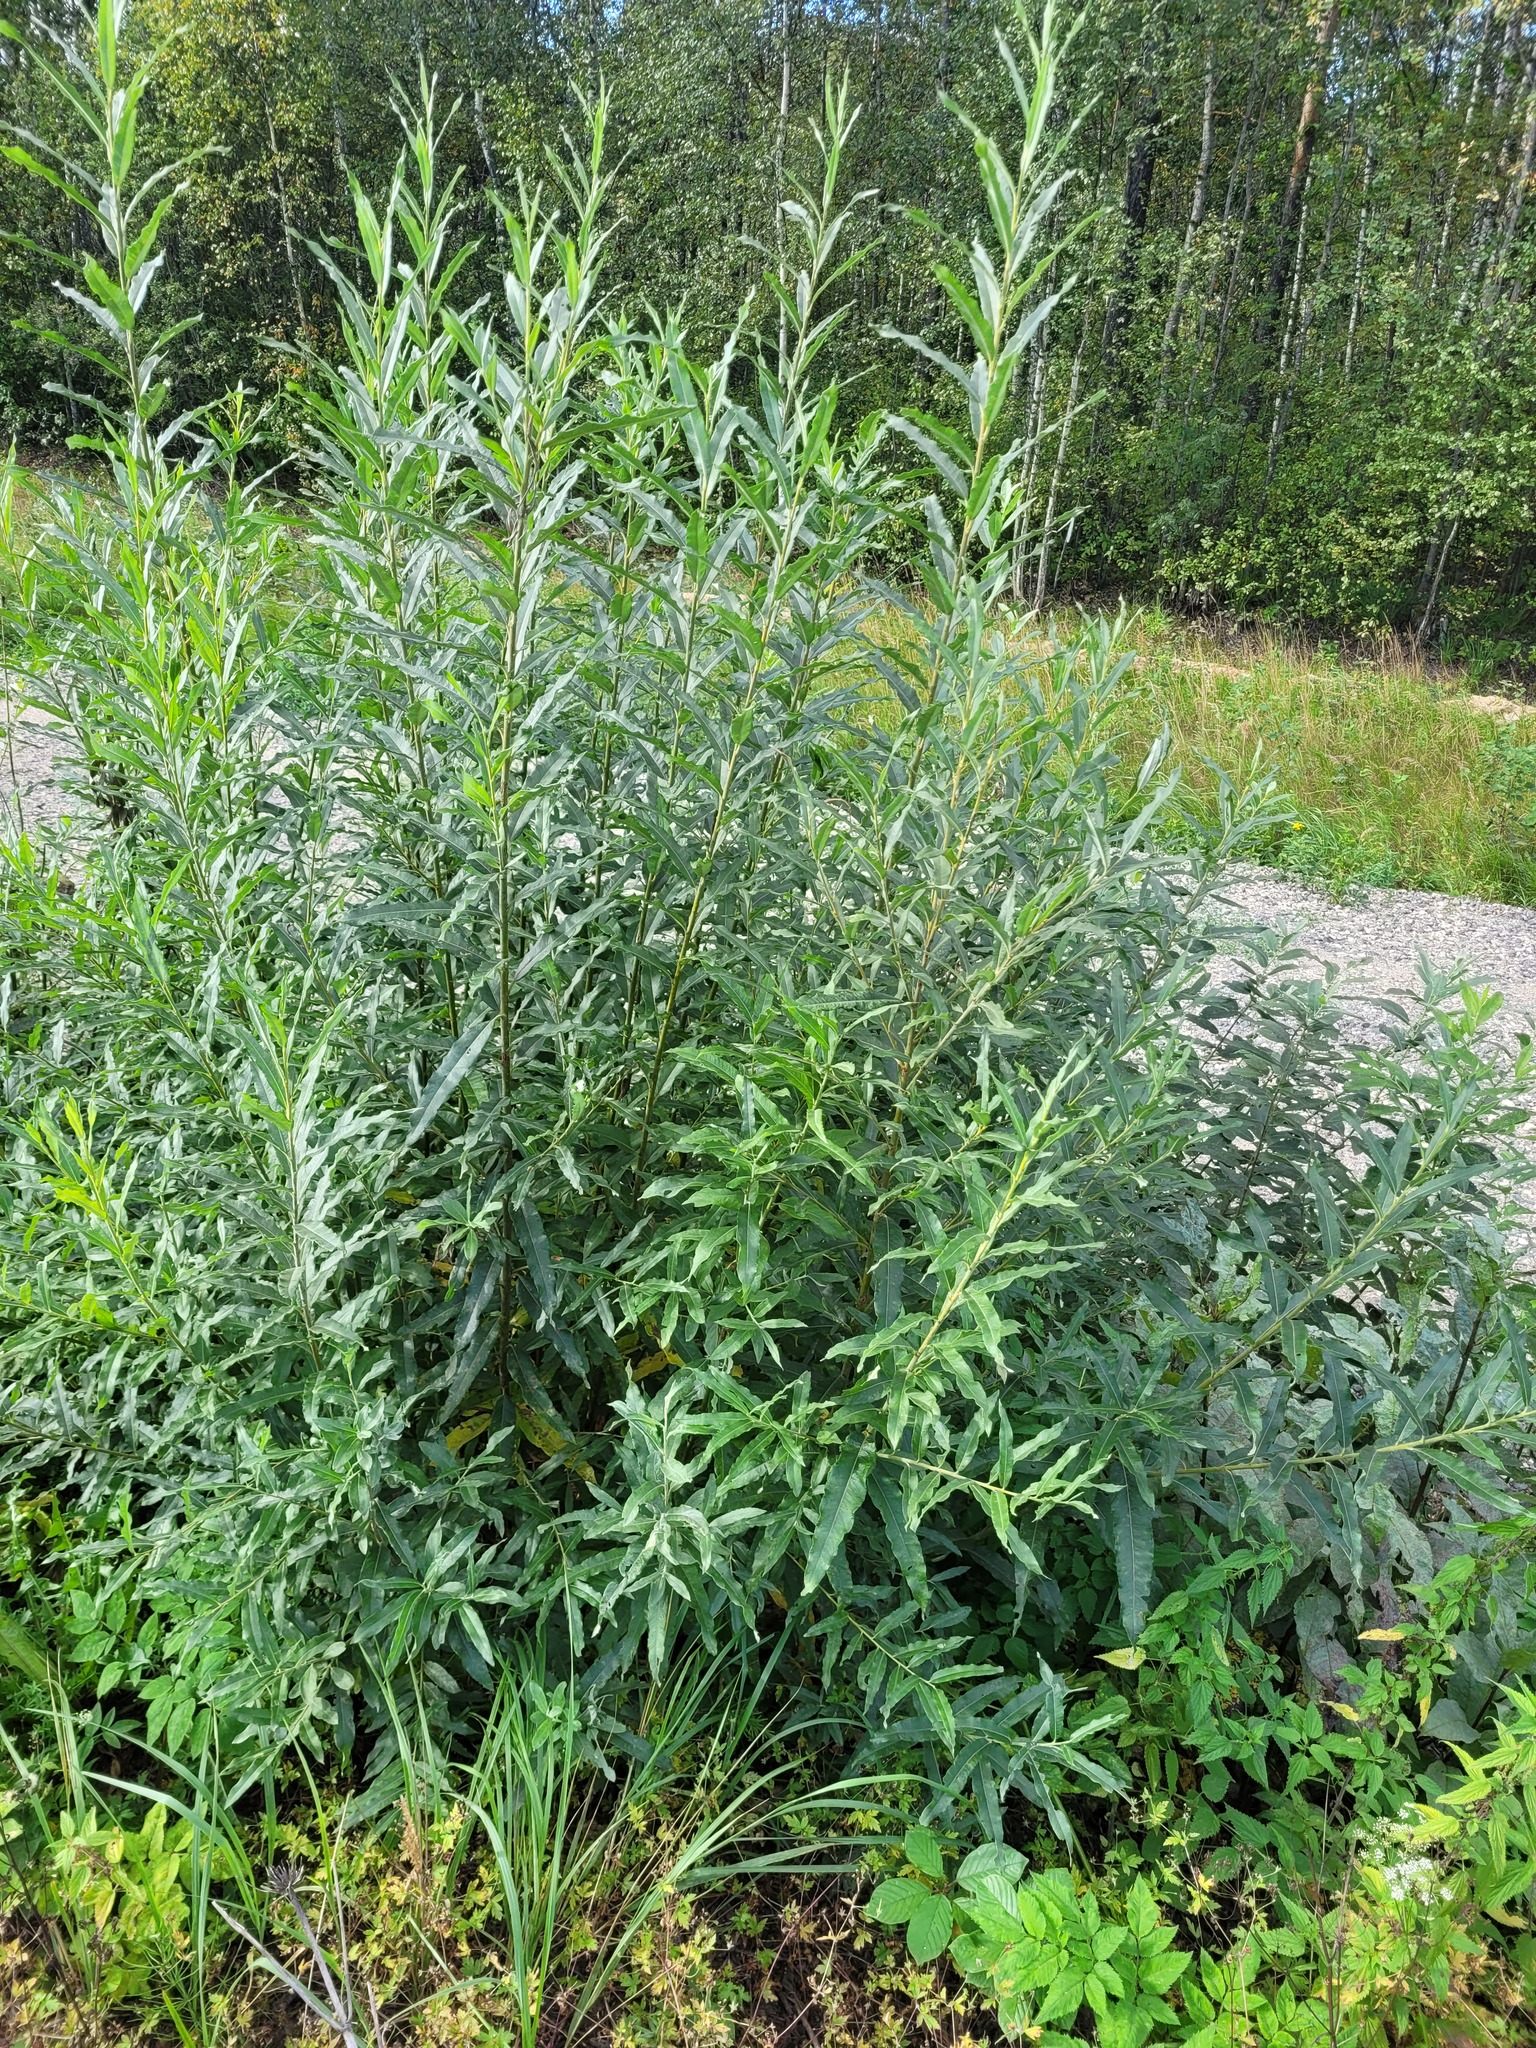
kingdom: Plantae
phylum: Tracheophyta
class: Magnoliopsida
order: Malpighiales
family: Salicaceae
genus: Salix
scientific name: Salix gmelinii
